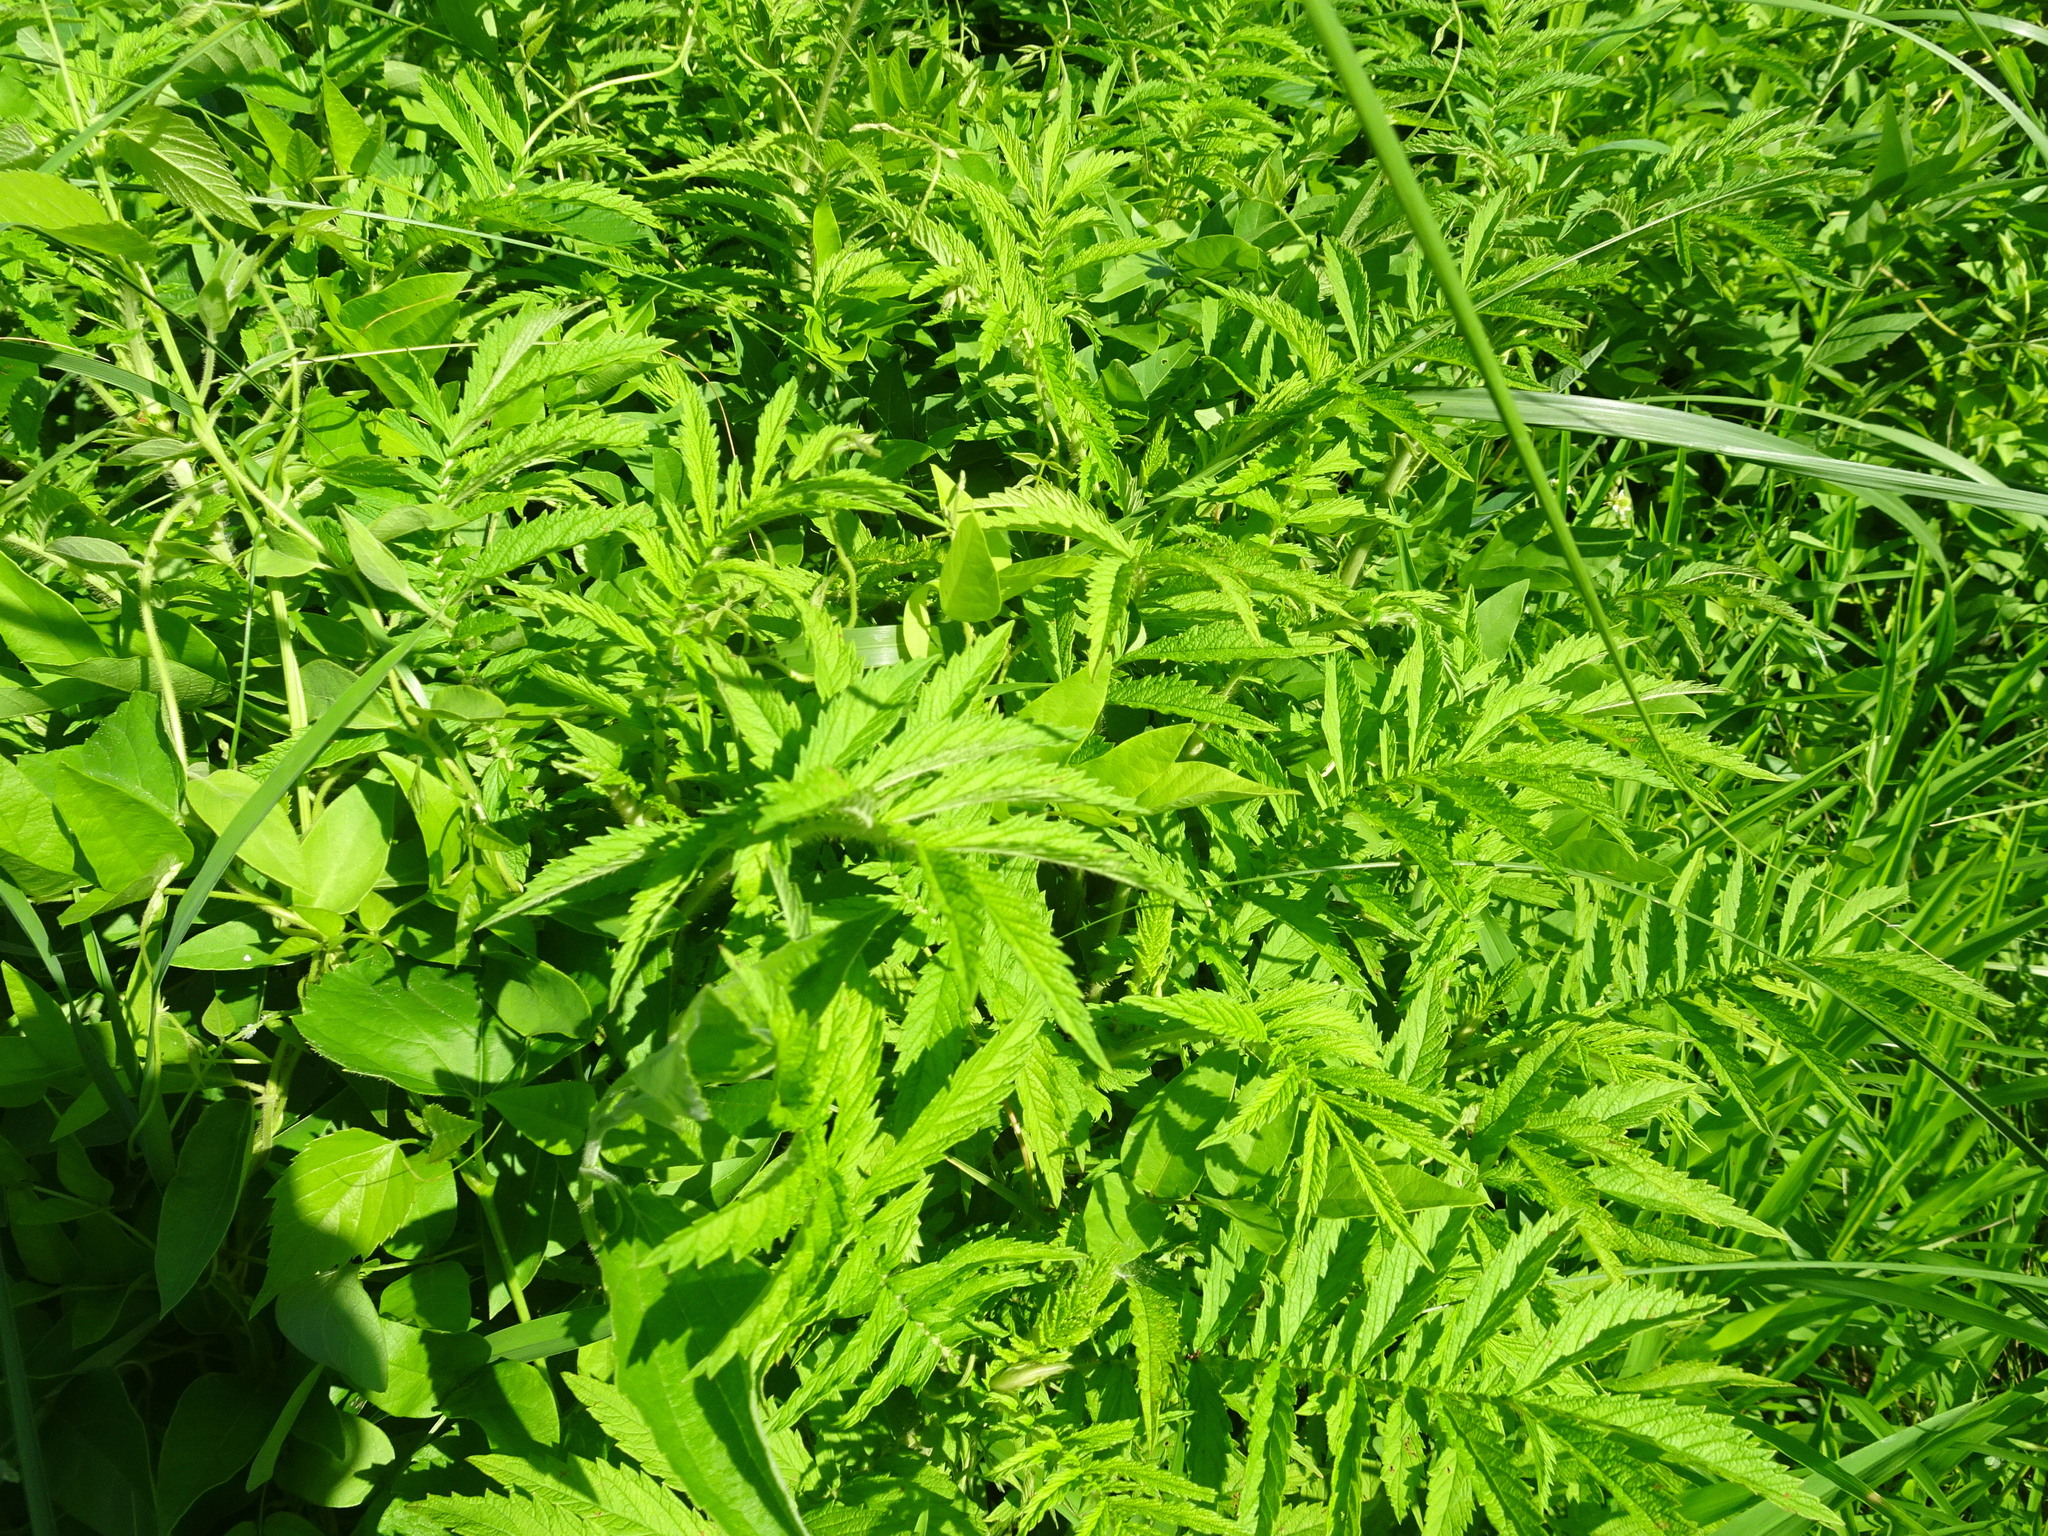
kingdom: Plantae
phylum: Tracheophyta
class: Magnoliopsida
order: Rosales
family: Rosaceae
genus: Agrimonia
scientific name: Agrimonia parviflora
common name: Harvest-lice
